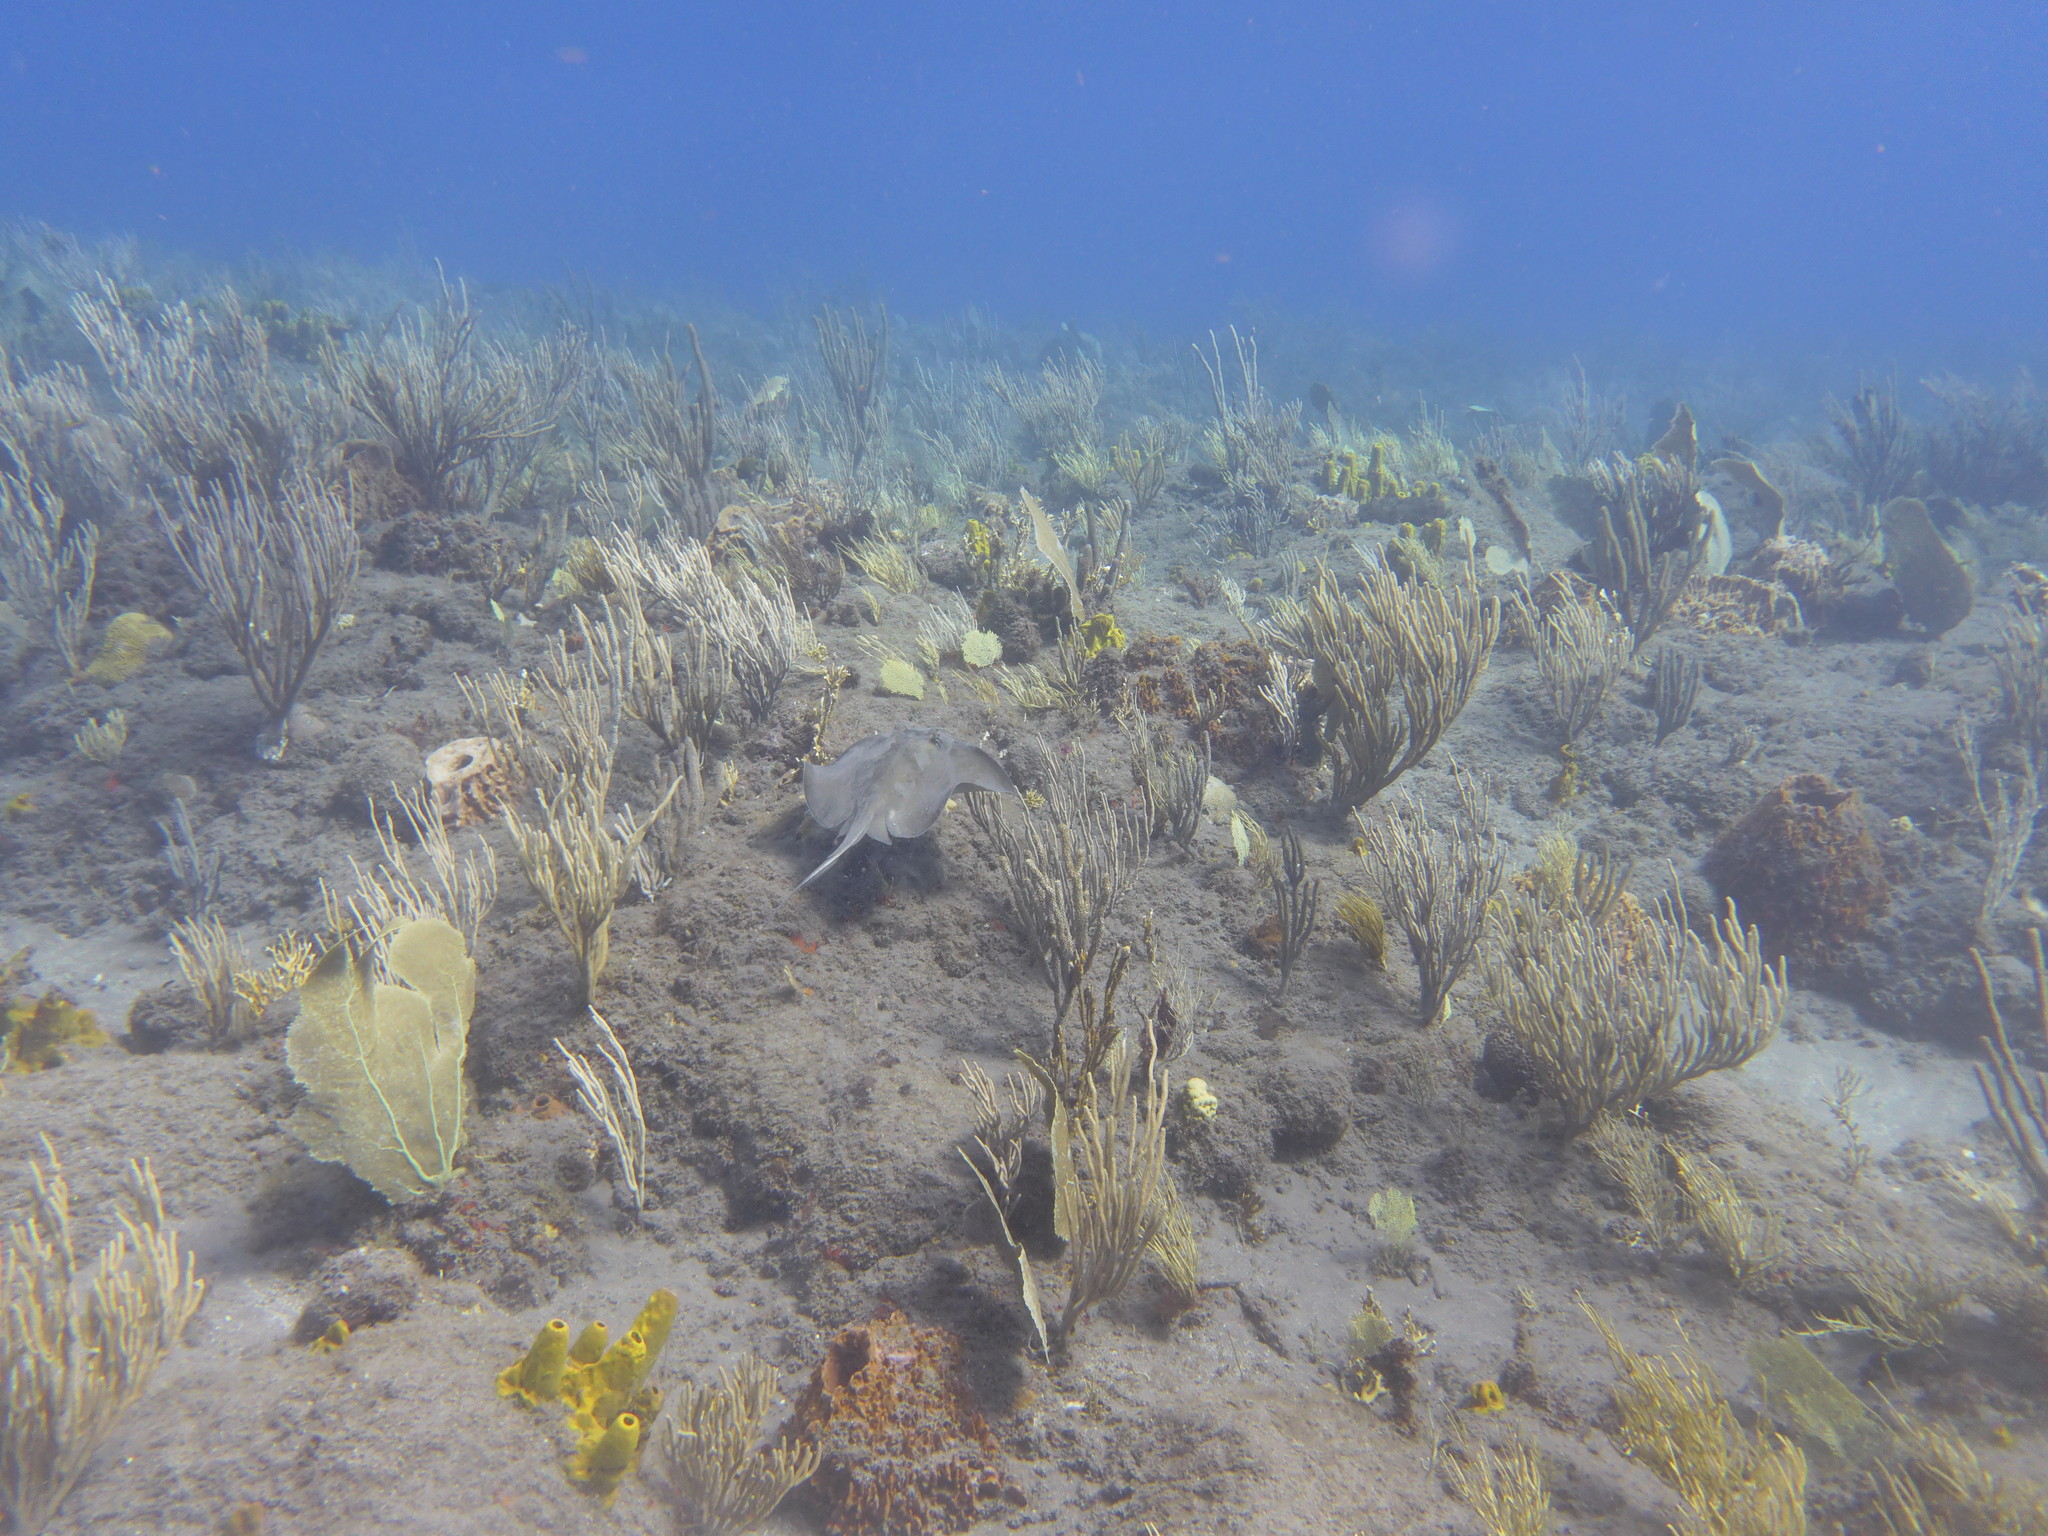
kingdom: Animalia
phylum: Chordata
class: Elasmobranchii
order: Myliobatiformes
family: Dasyatidae
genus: Hypanus
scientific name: Hypanus americanus
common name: Southern stingray
